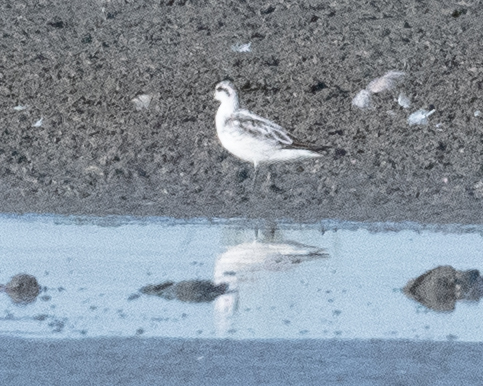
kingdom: Animalia
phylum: Chordata
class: Aves
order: Charadriiformes
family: Scolopacidae
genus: Phalaropus
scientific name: Phalaropus lobatus
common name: Red-necked phalarope
